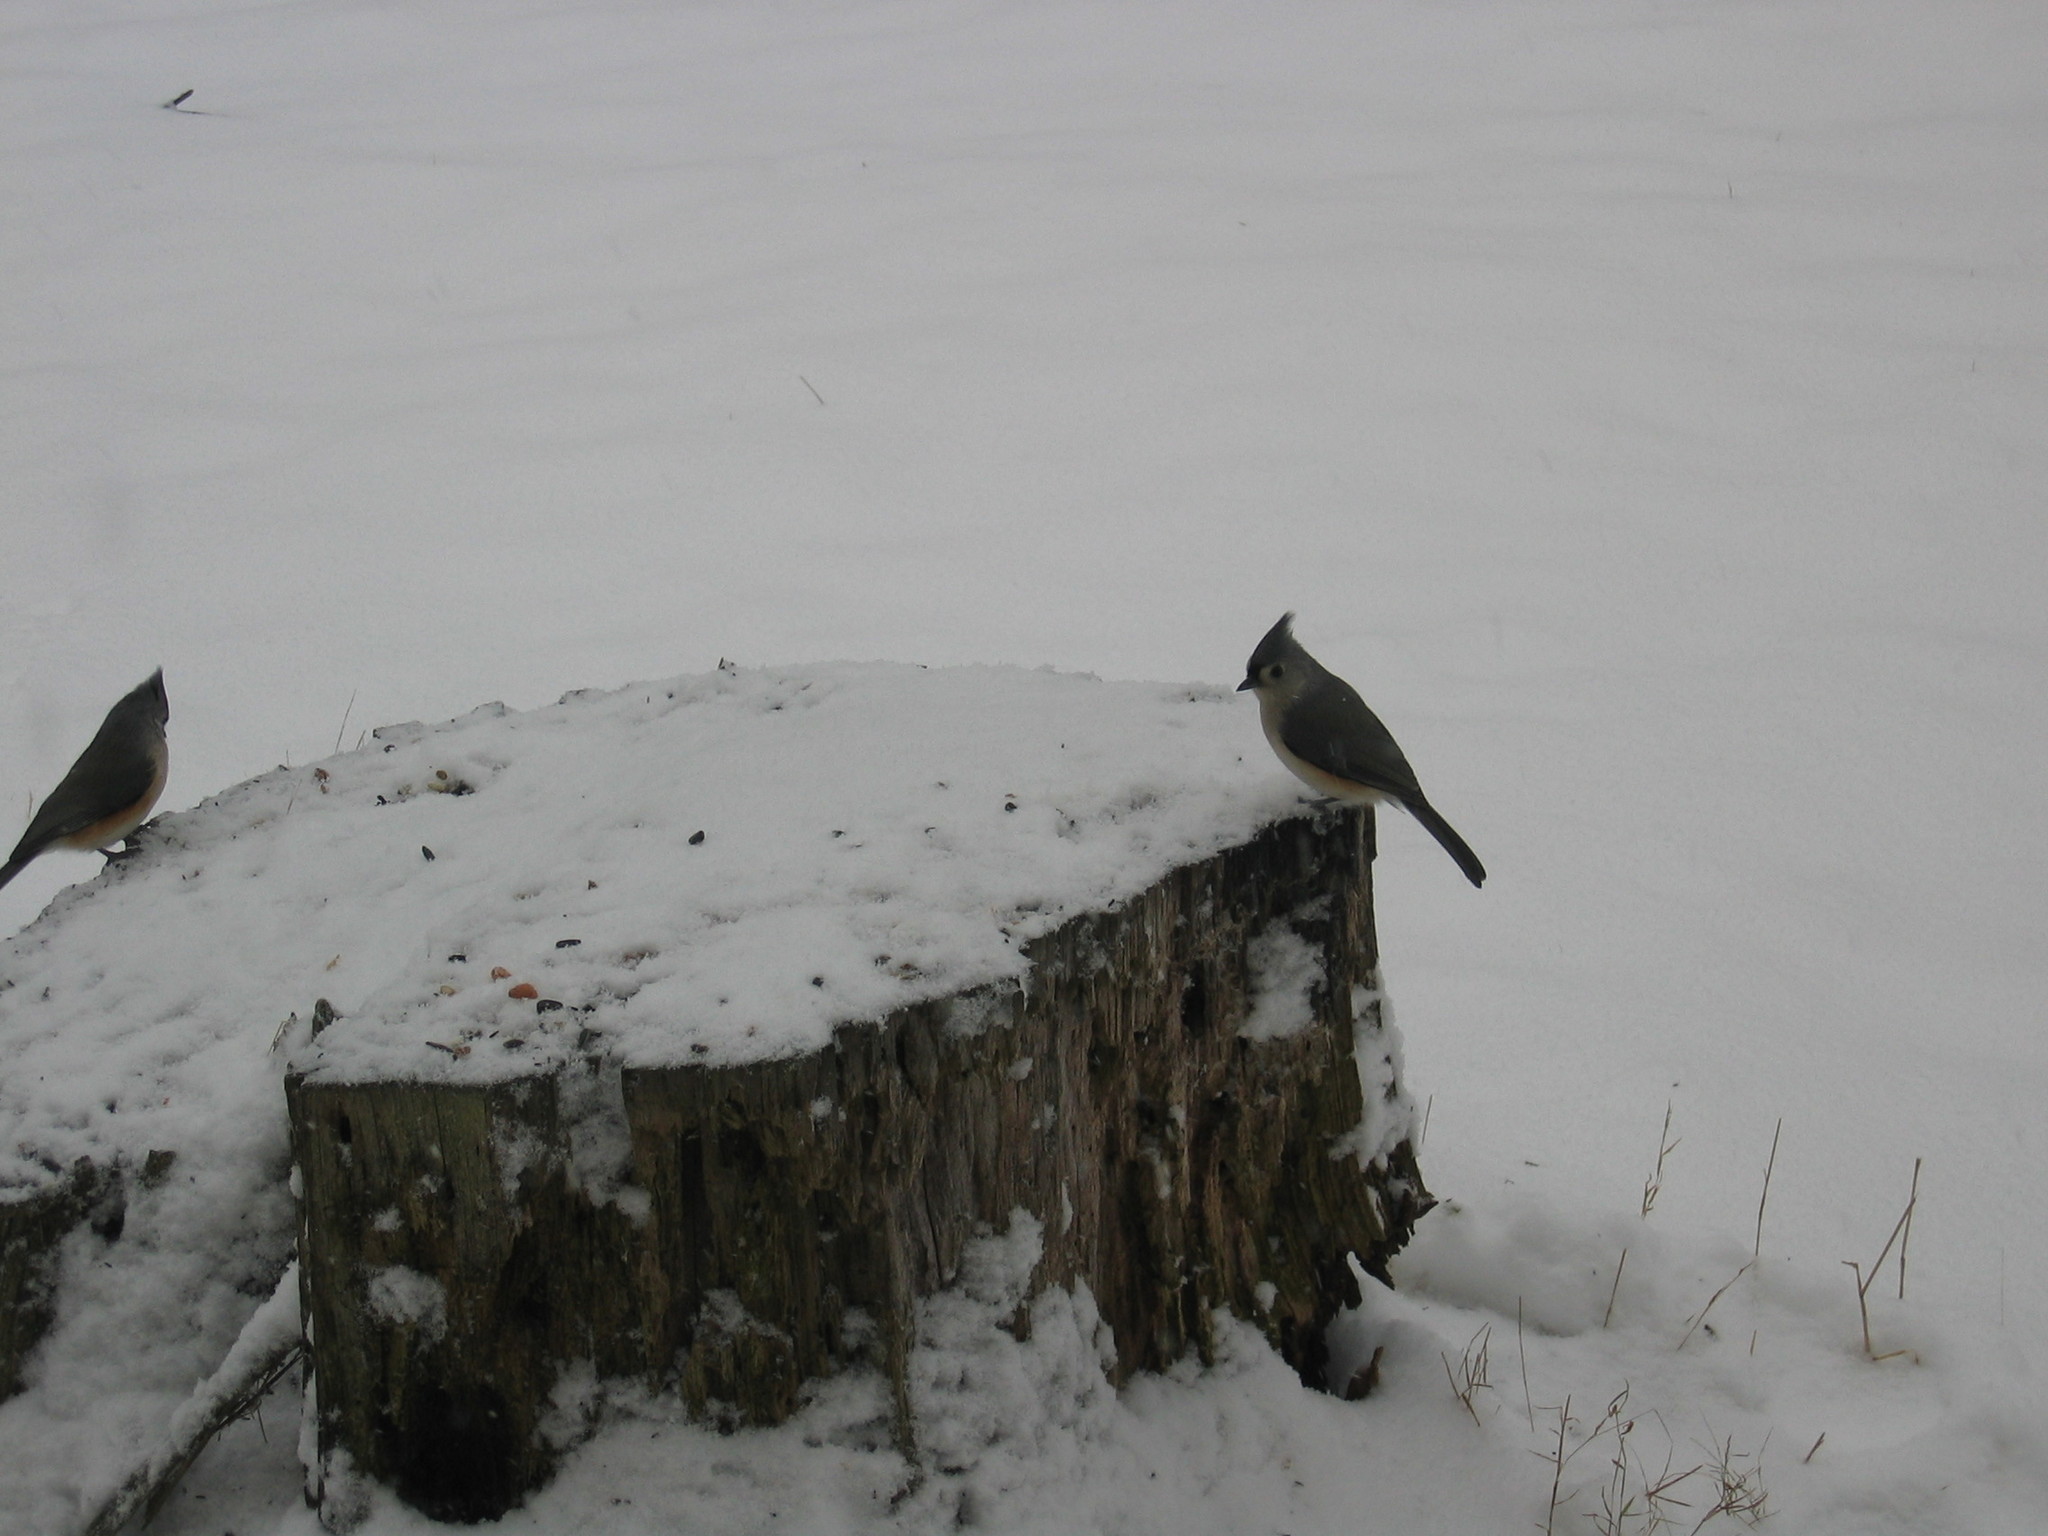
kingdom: Animalia
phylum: Chordata
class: Aves
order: Passeriformes
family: Paridae
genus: Baeolophus
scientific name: Baeolophus bicolor
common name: Tufted titmouse
